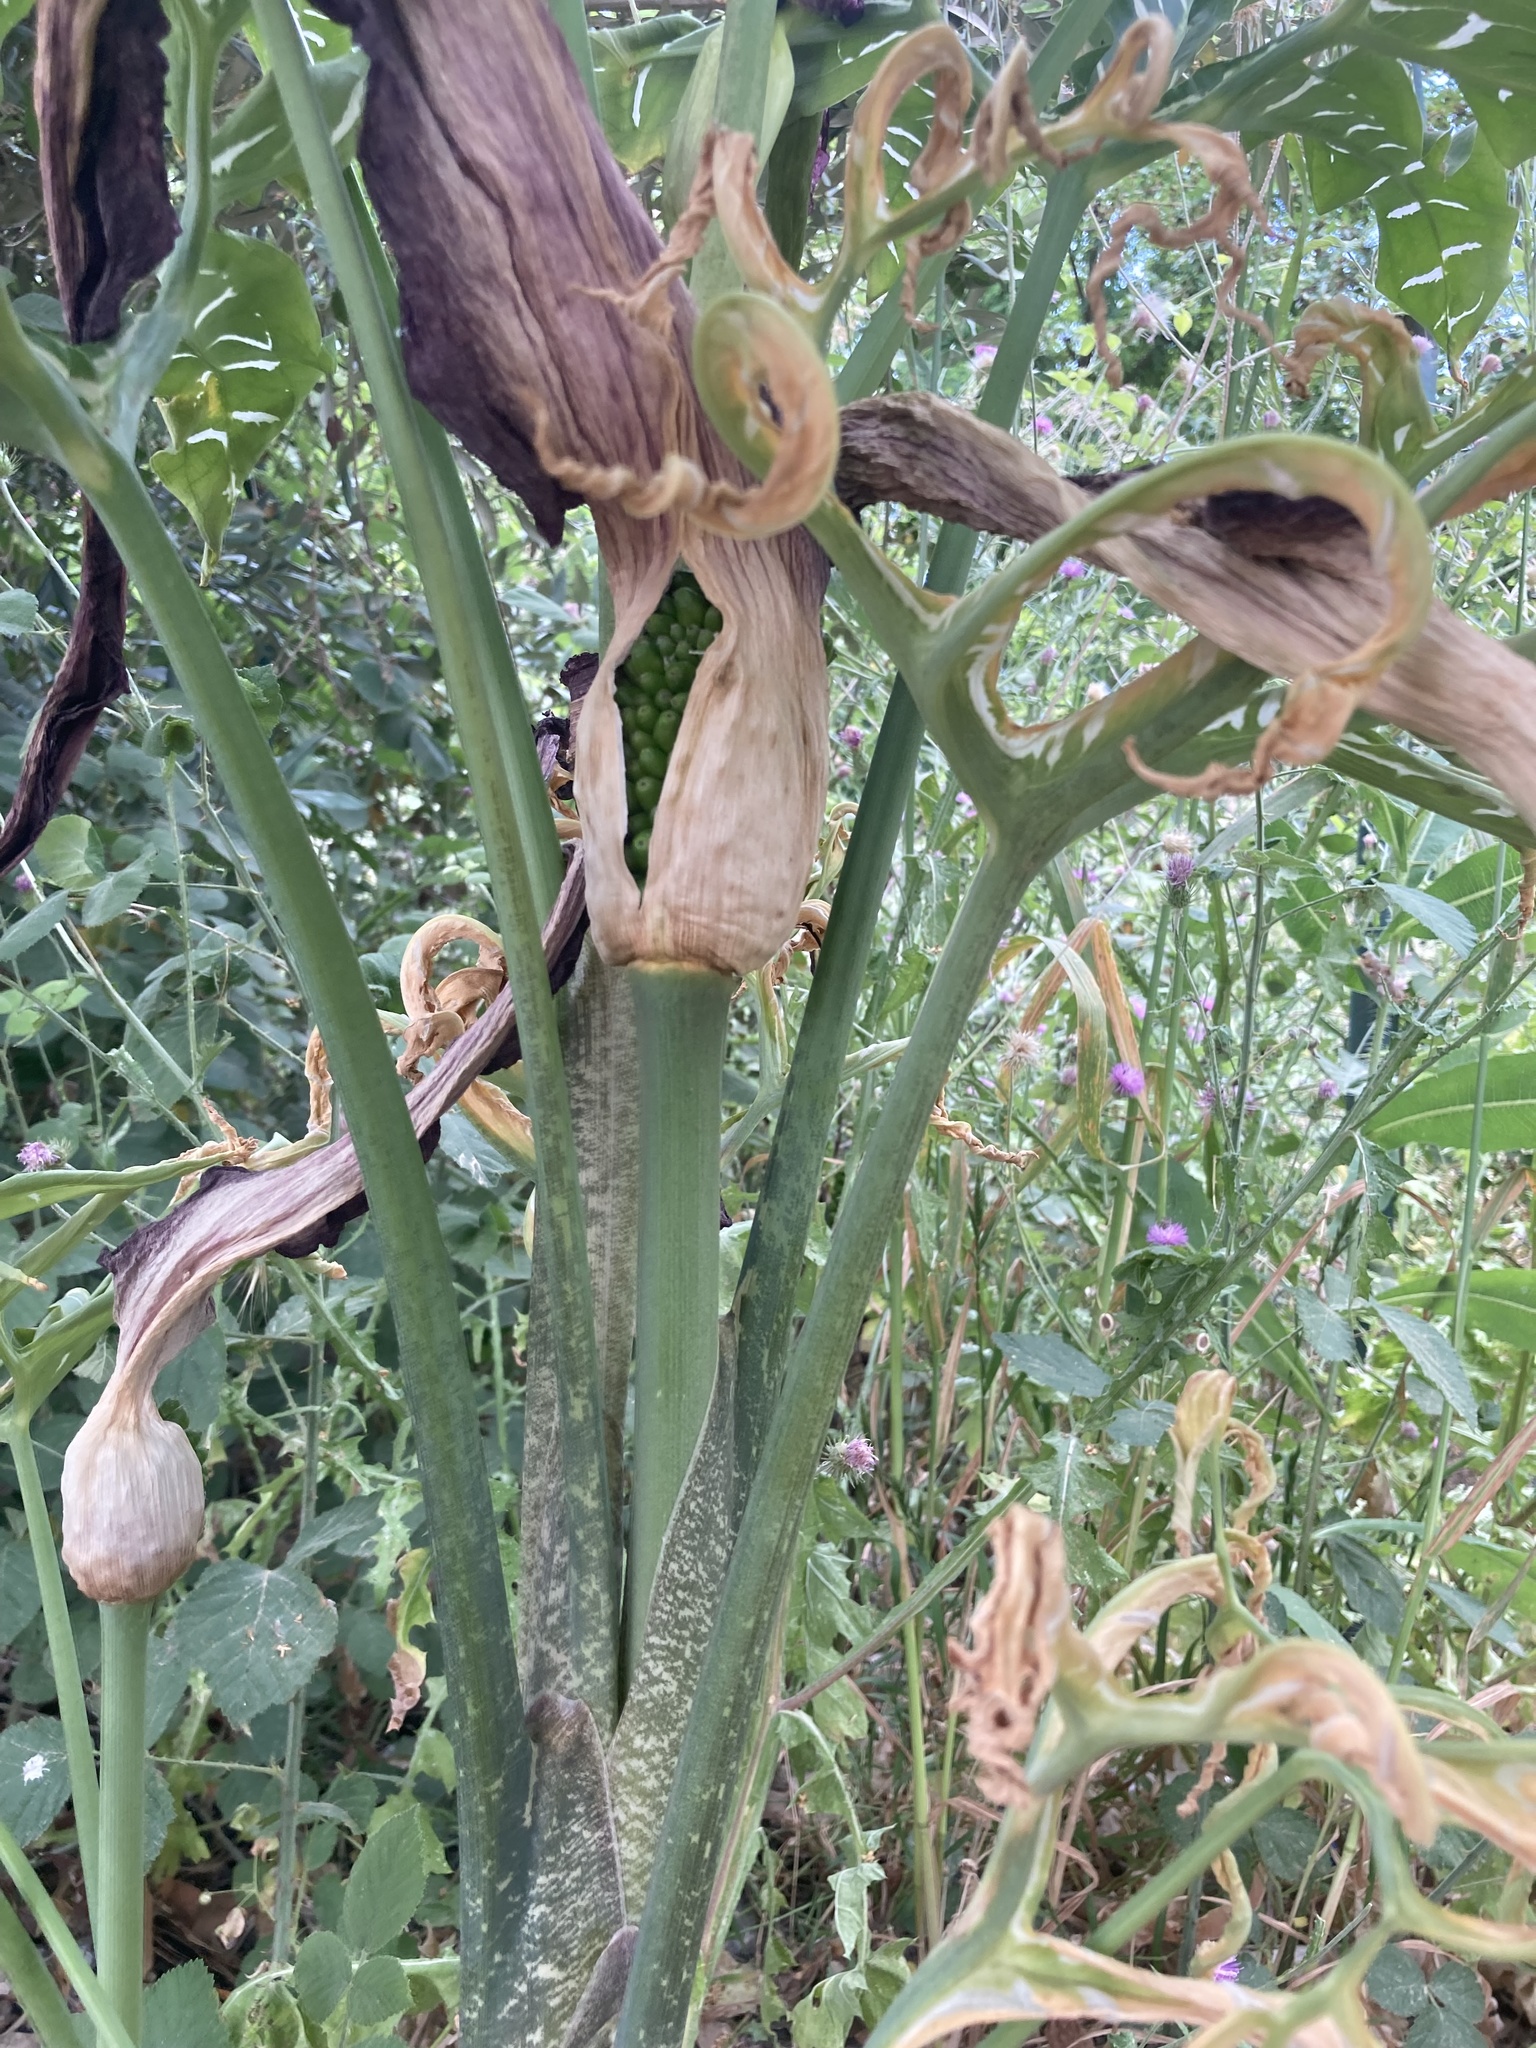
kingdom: Plantae
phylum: Tracheophyta
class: Liliopsida
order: Alismatales
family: Araceae
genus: Dracunculus
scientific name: Dracunculus vulgaris
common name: Dragon arum
